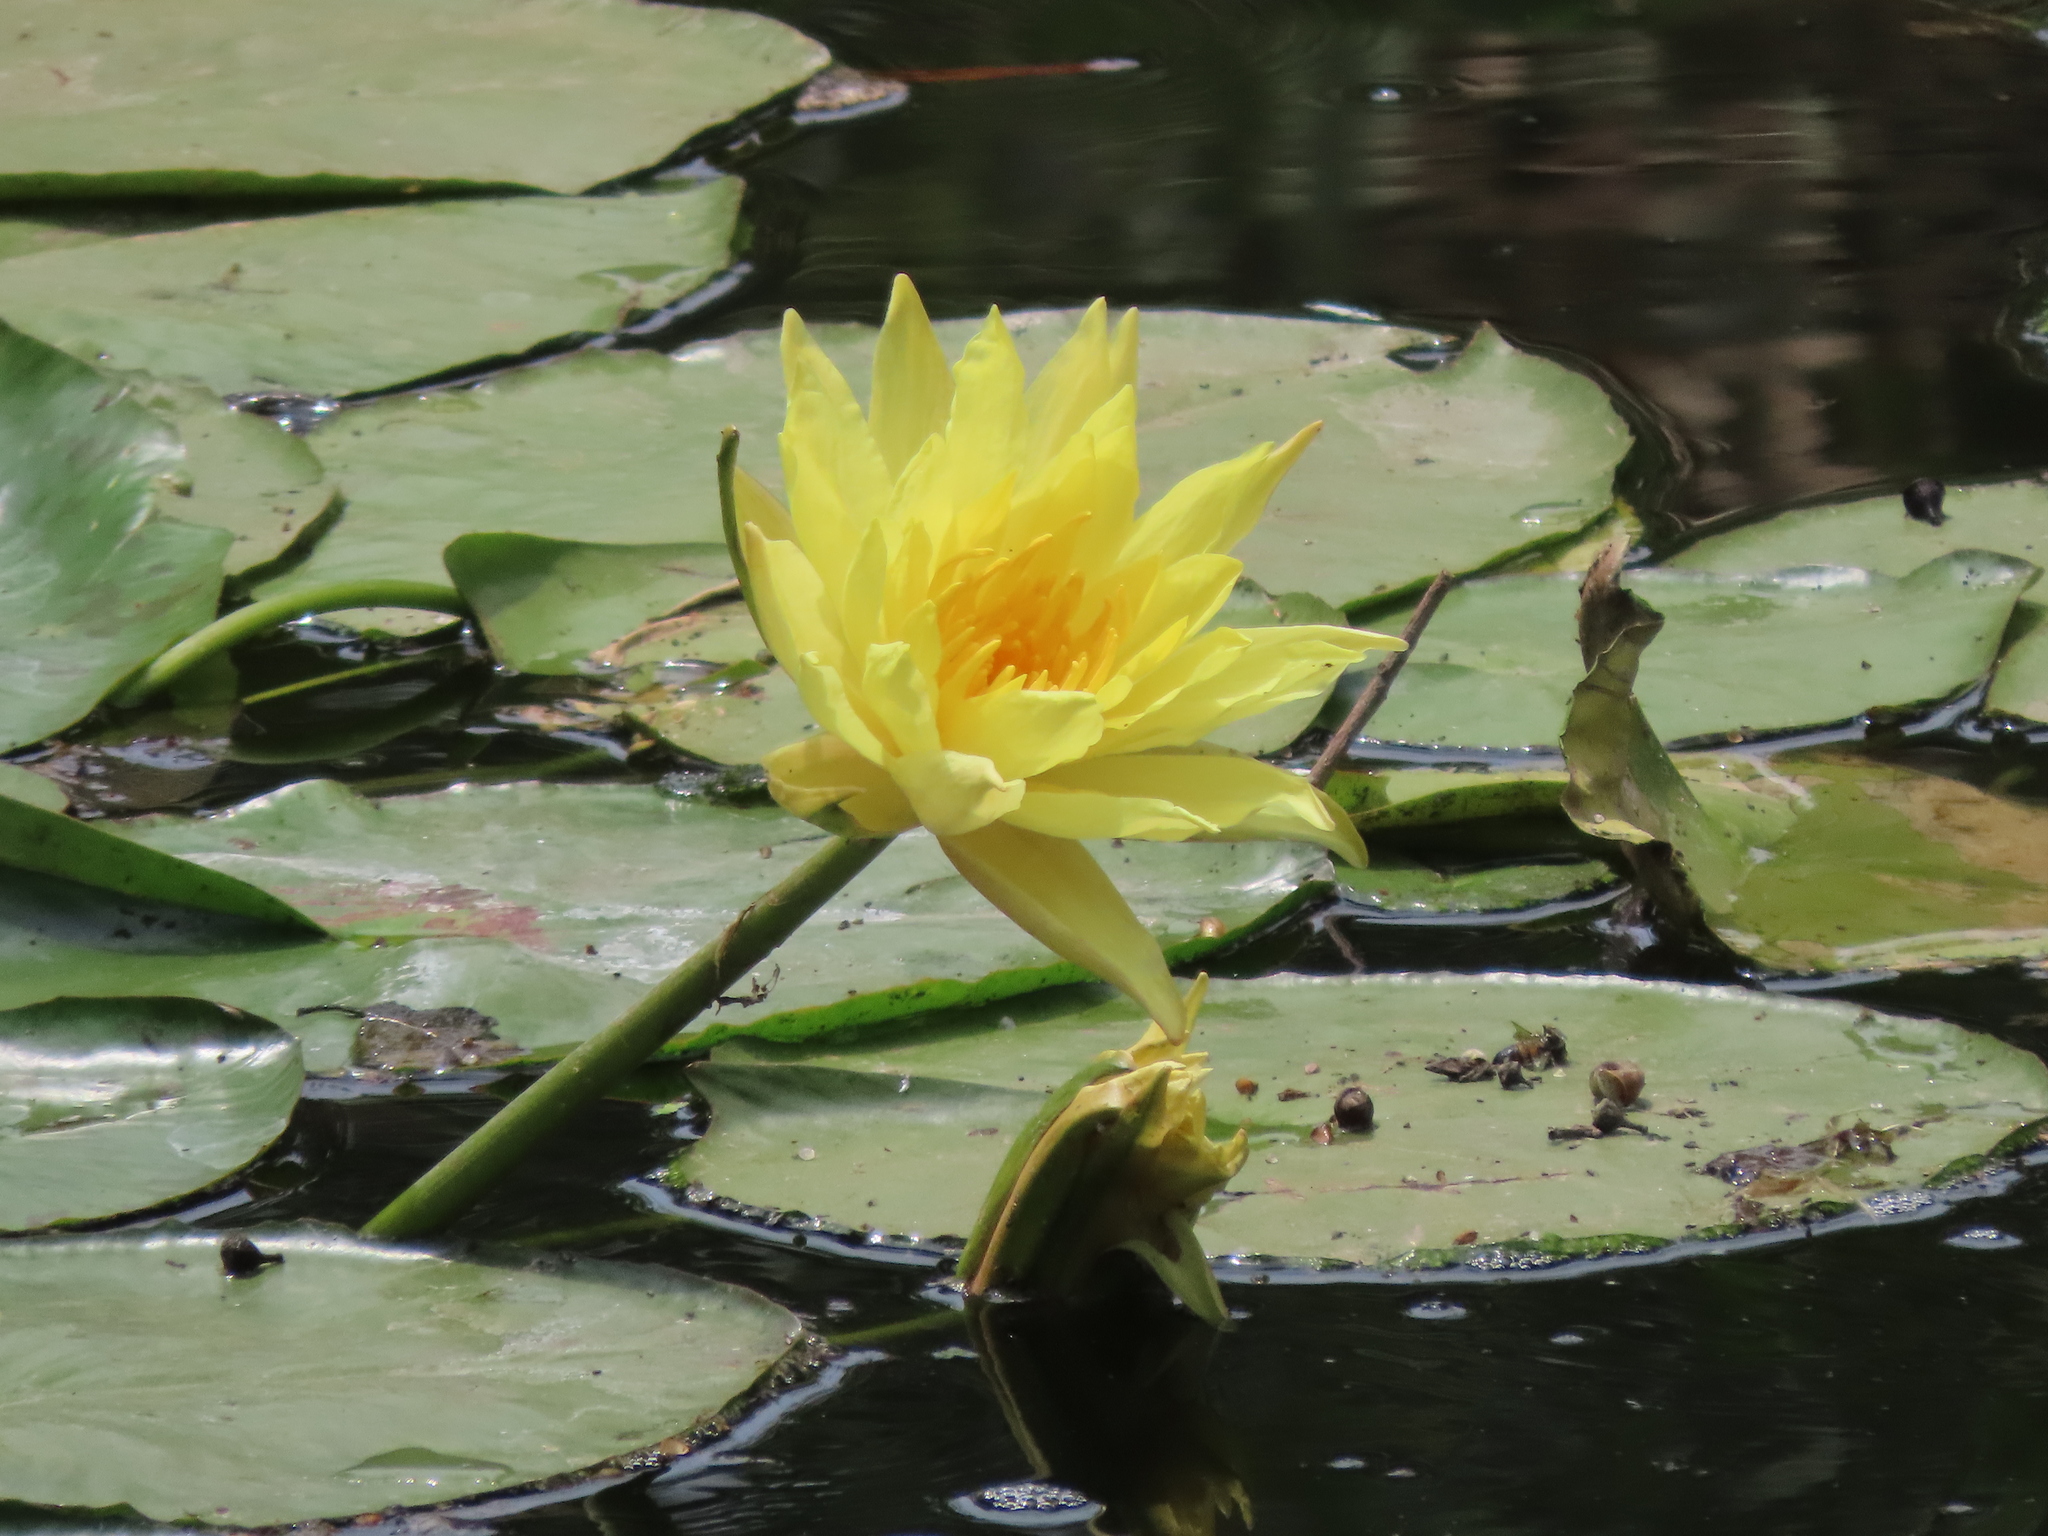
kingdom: Plantae
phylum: Tracheophyta
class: Magnoliopsida
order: Nymphaeales
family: Nymphaeaceae
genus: Nymphaea
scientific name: Nymphaea mexicana
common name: Banana water-lily
